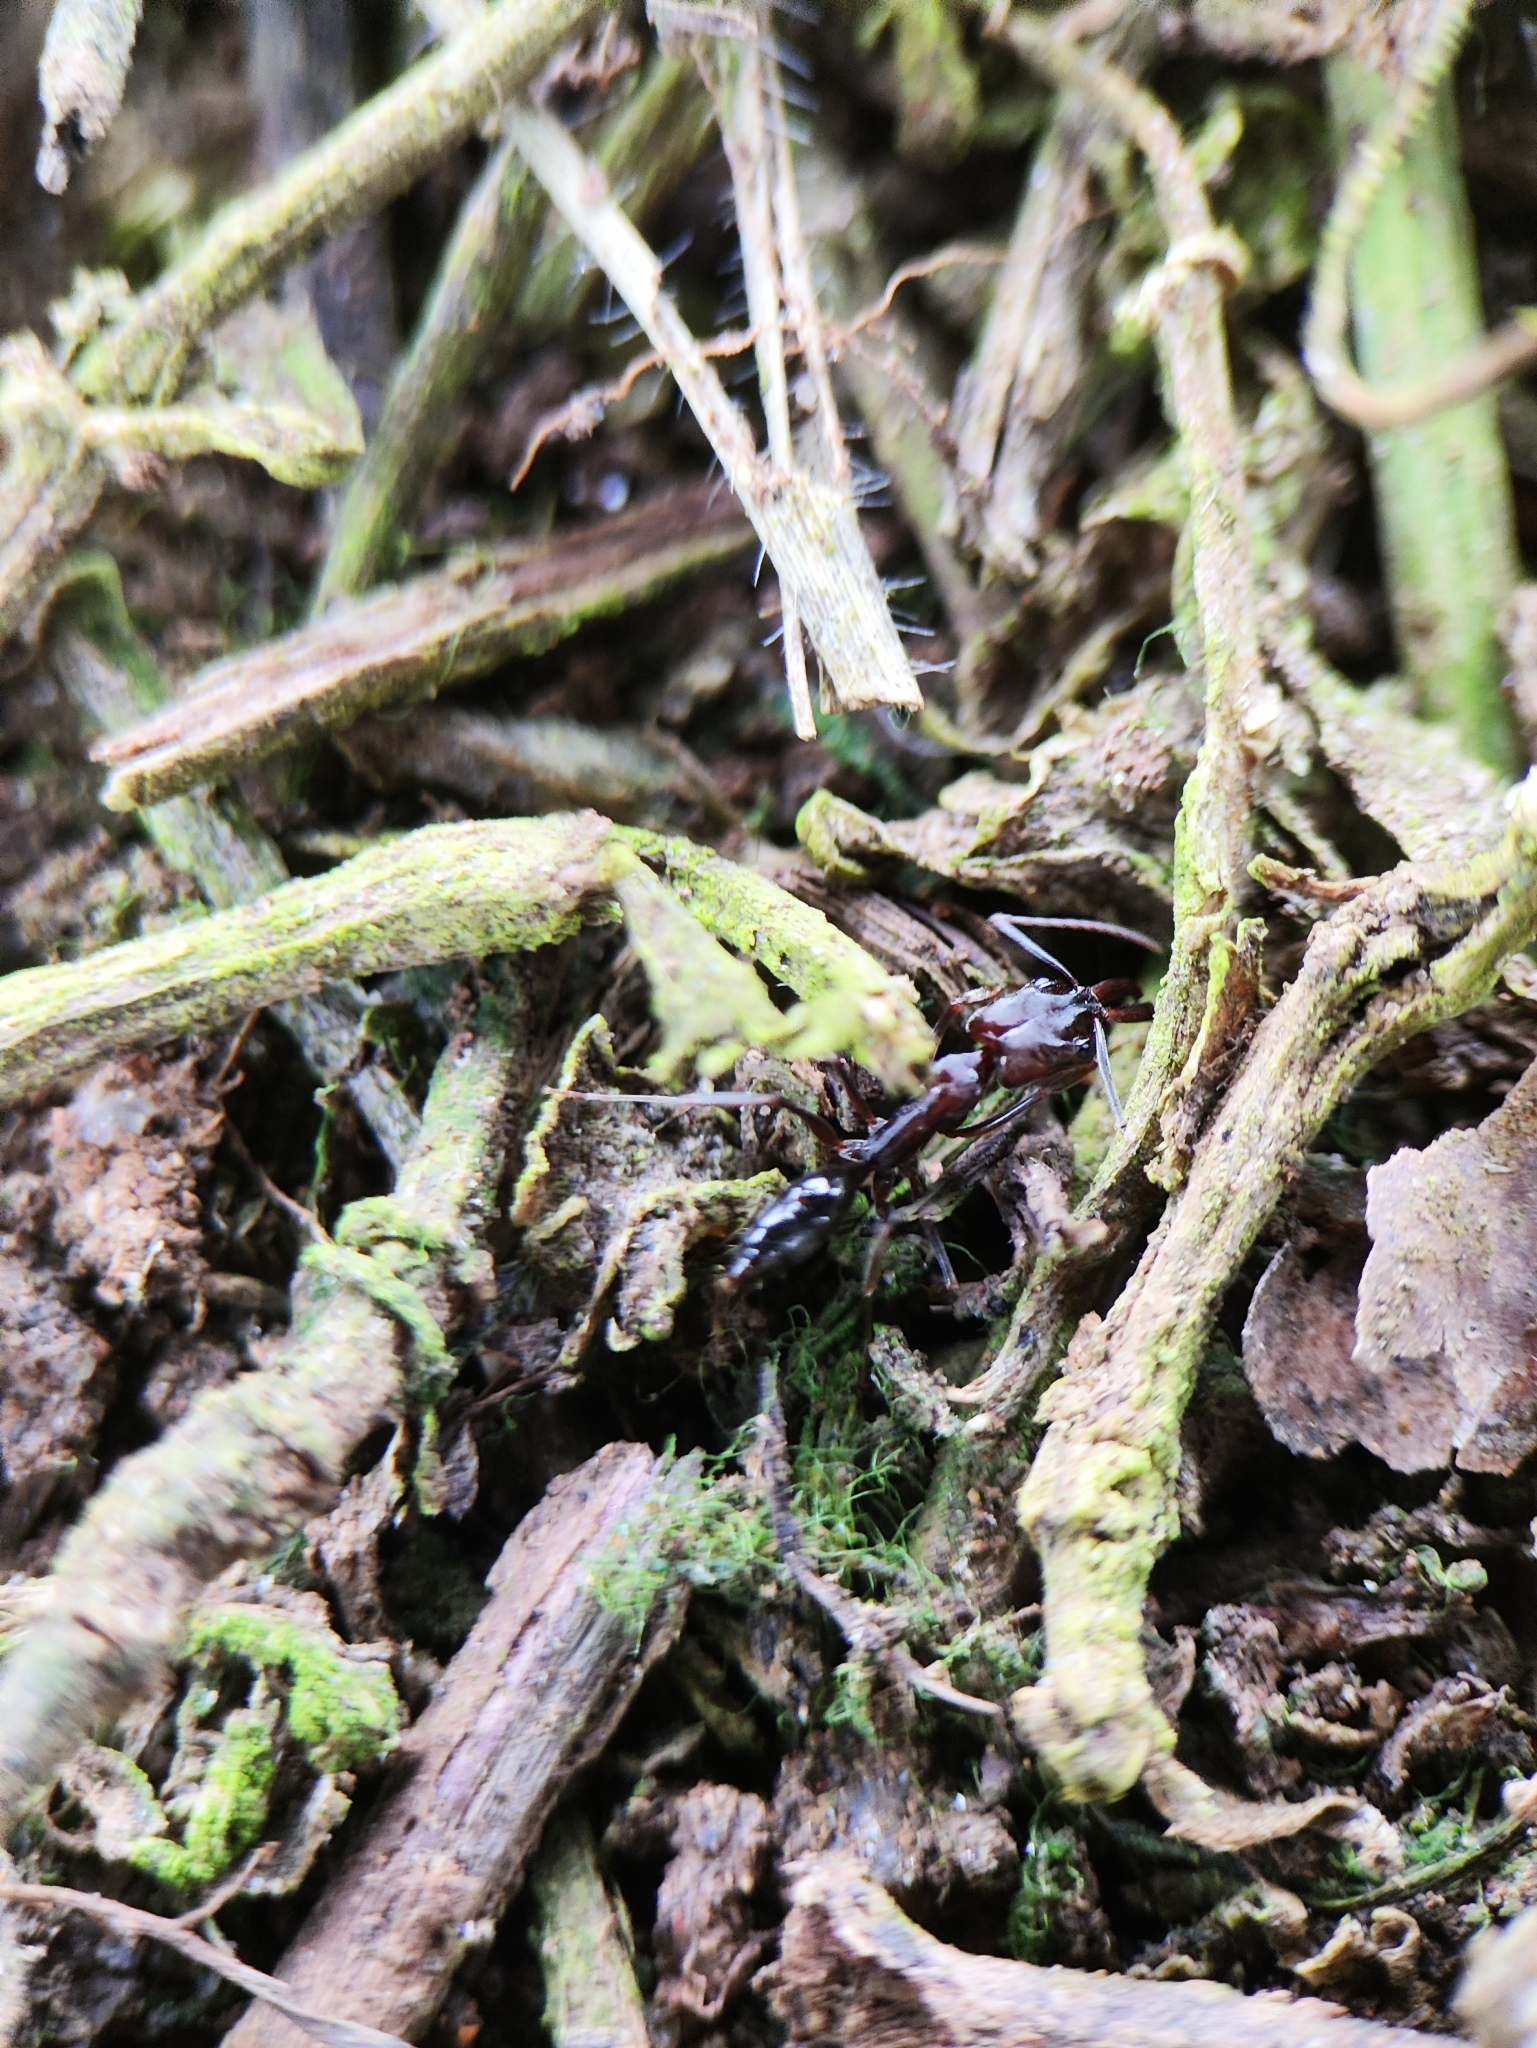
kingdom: Animalia
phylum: Arthropoda
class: Insecta
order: Hymenoptera
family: Formicidae
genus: Odontomachus
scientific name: Odontomachus simillimus
